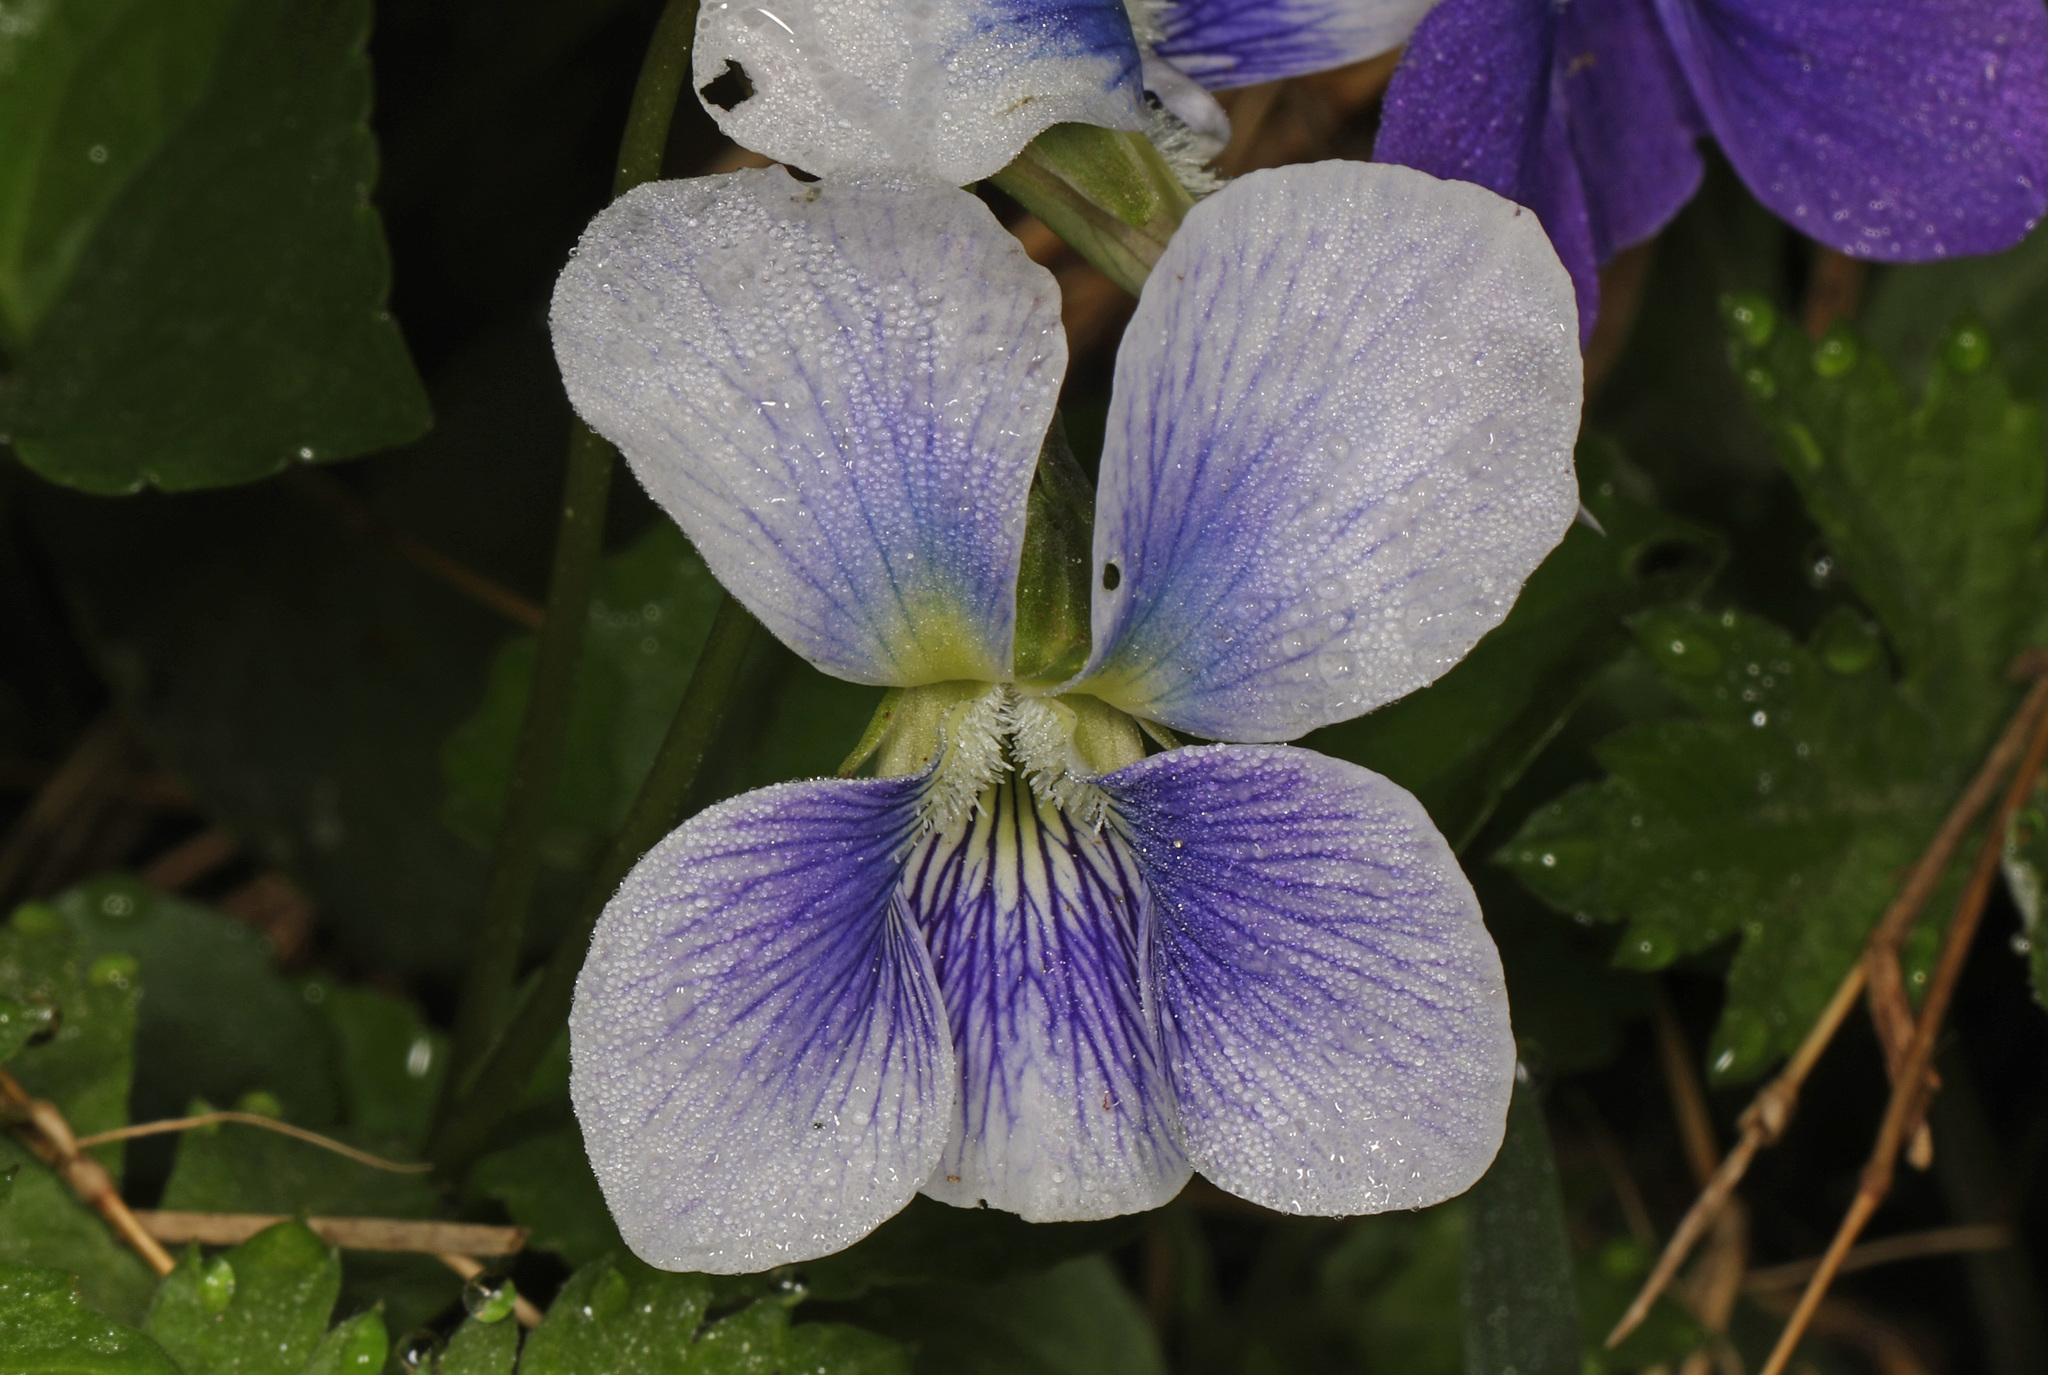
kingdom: Plantae
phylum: Tracheophyta
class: Magnoliopsida
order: Malpighiales
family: Violaceae
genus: Viola
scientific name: Viola sororia
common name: Dooryard violet
